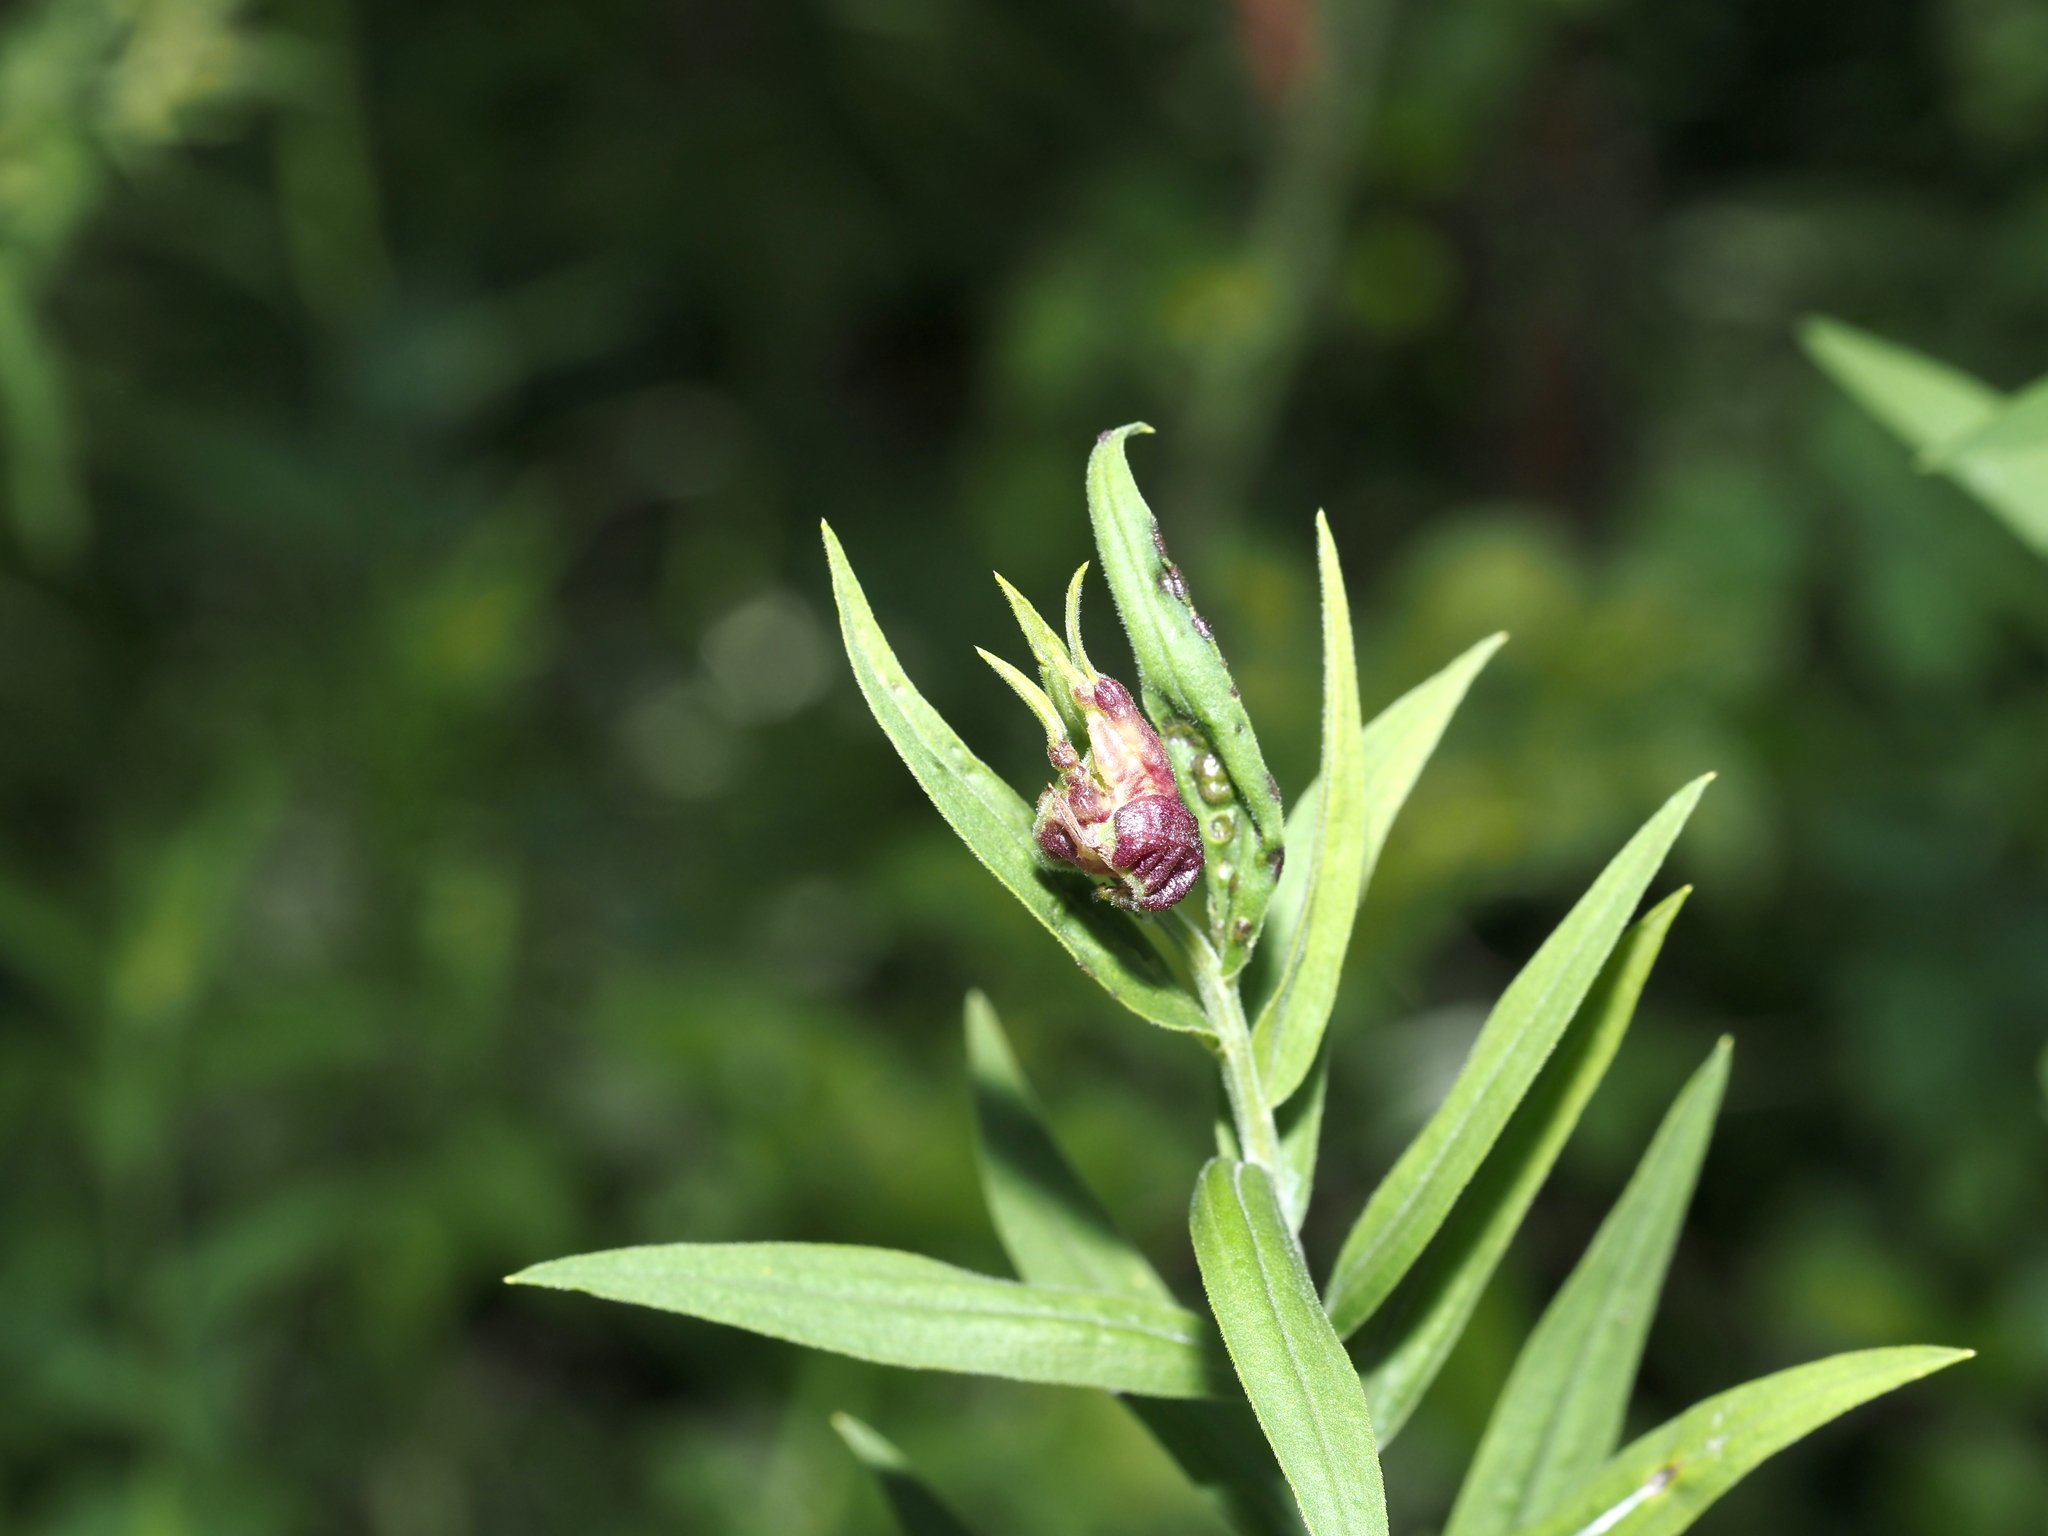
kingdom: Animalia
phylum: Arthropoda
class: Insecta
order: Diptera
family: Cecidomyiidae
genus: Dasineura
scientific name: Dasineura carbonaria
